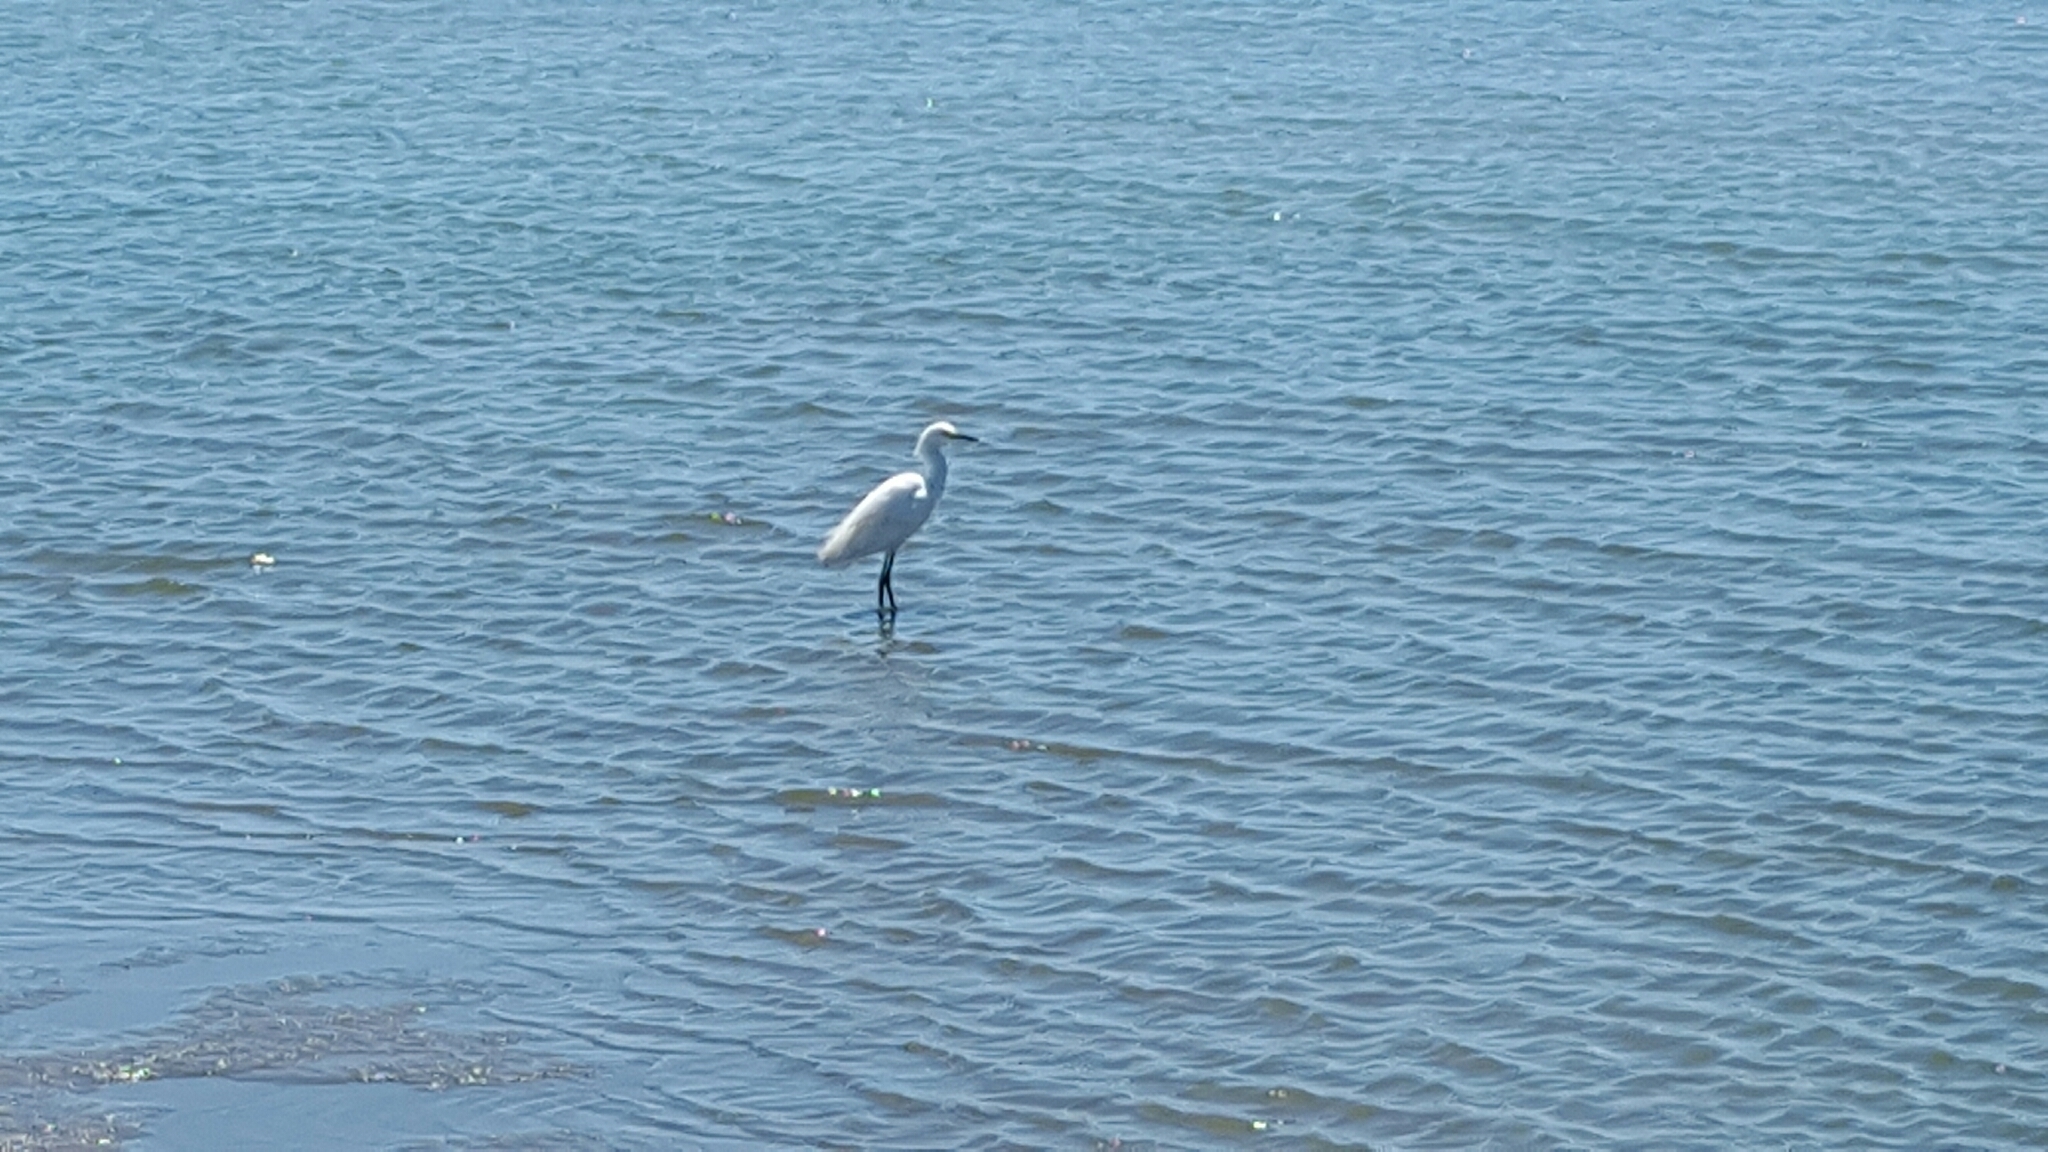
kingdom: Animalia
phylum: Chordata
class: Aves
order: Pelecaniformes
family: Ardeidae
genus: Egretta
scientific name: Egretta thula
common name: Snowy egret
